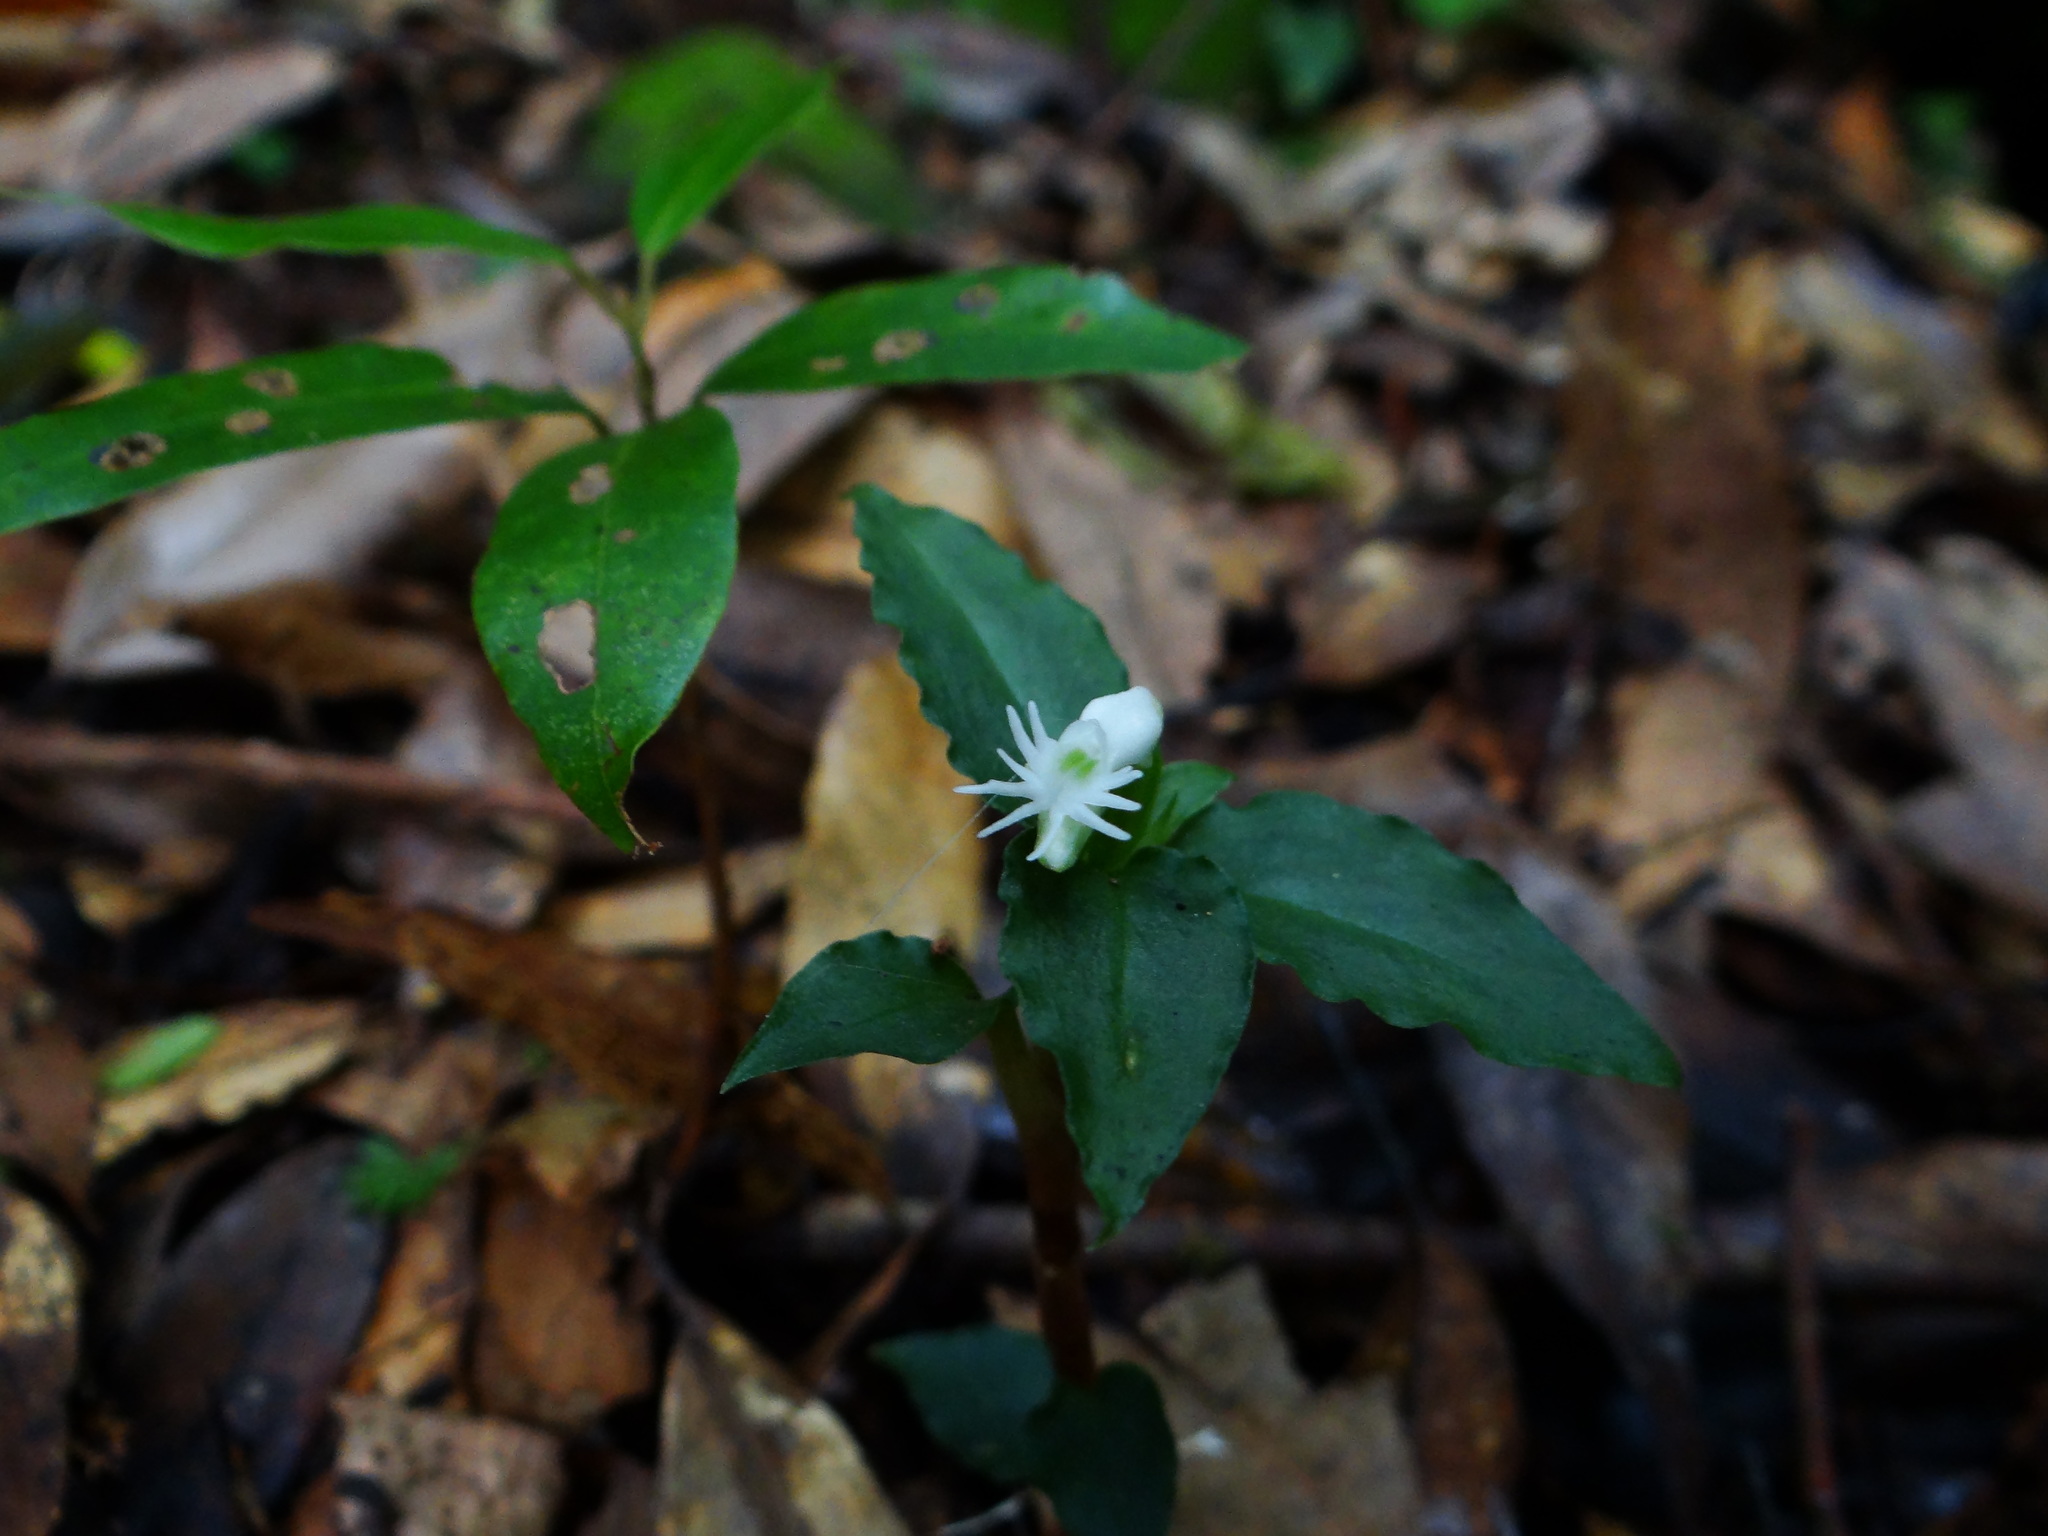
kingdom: Plantae
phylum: Tracheophyta
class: Liliopsida
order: Asparagales
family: Orchidaceae
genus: Cheirostylis
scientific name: Cheirostylis octodactyla
